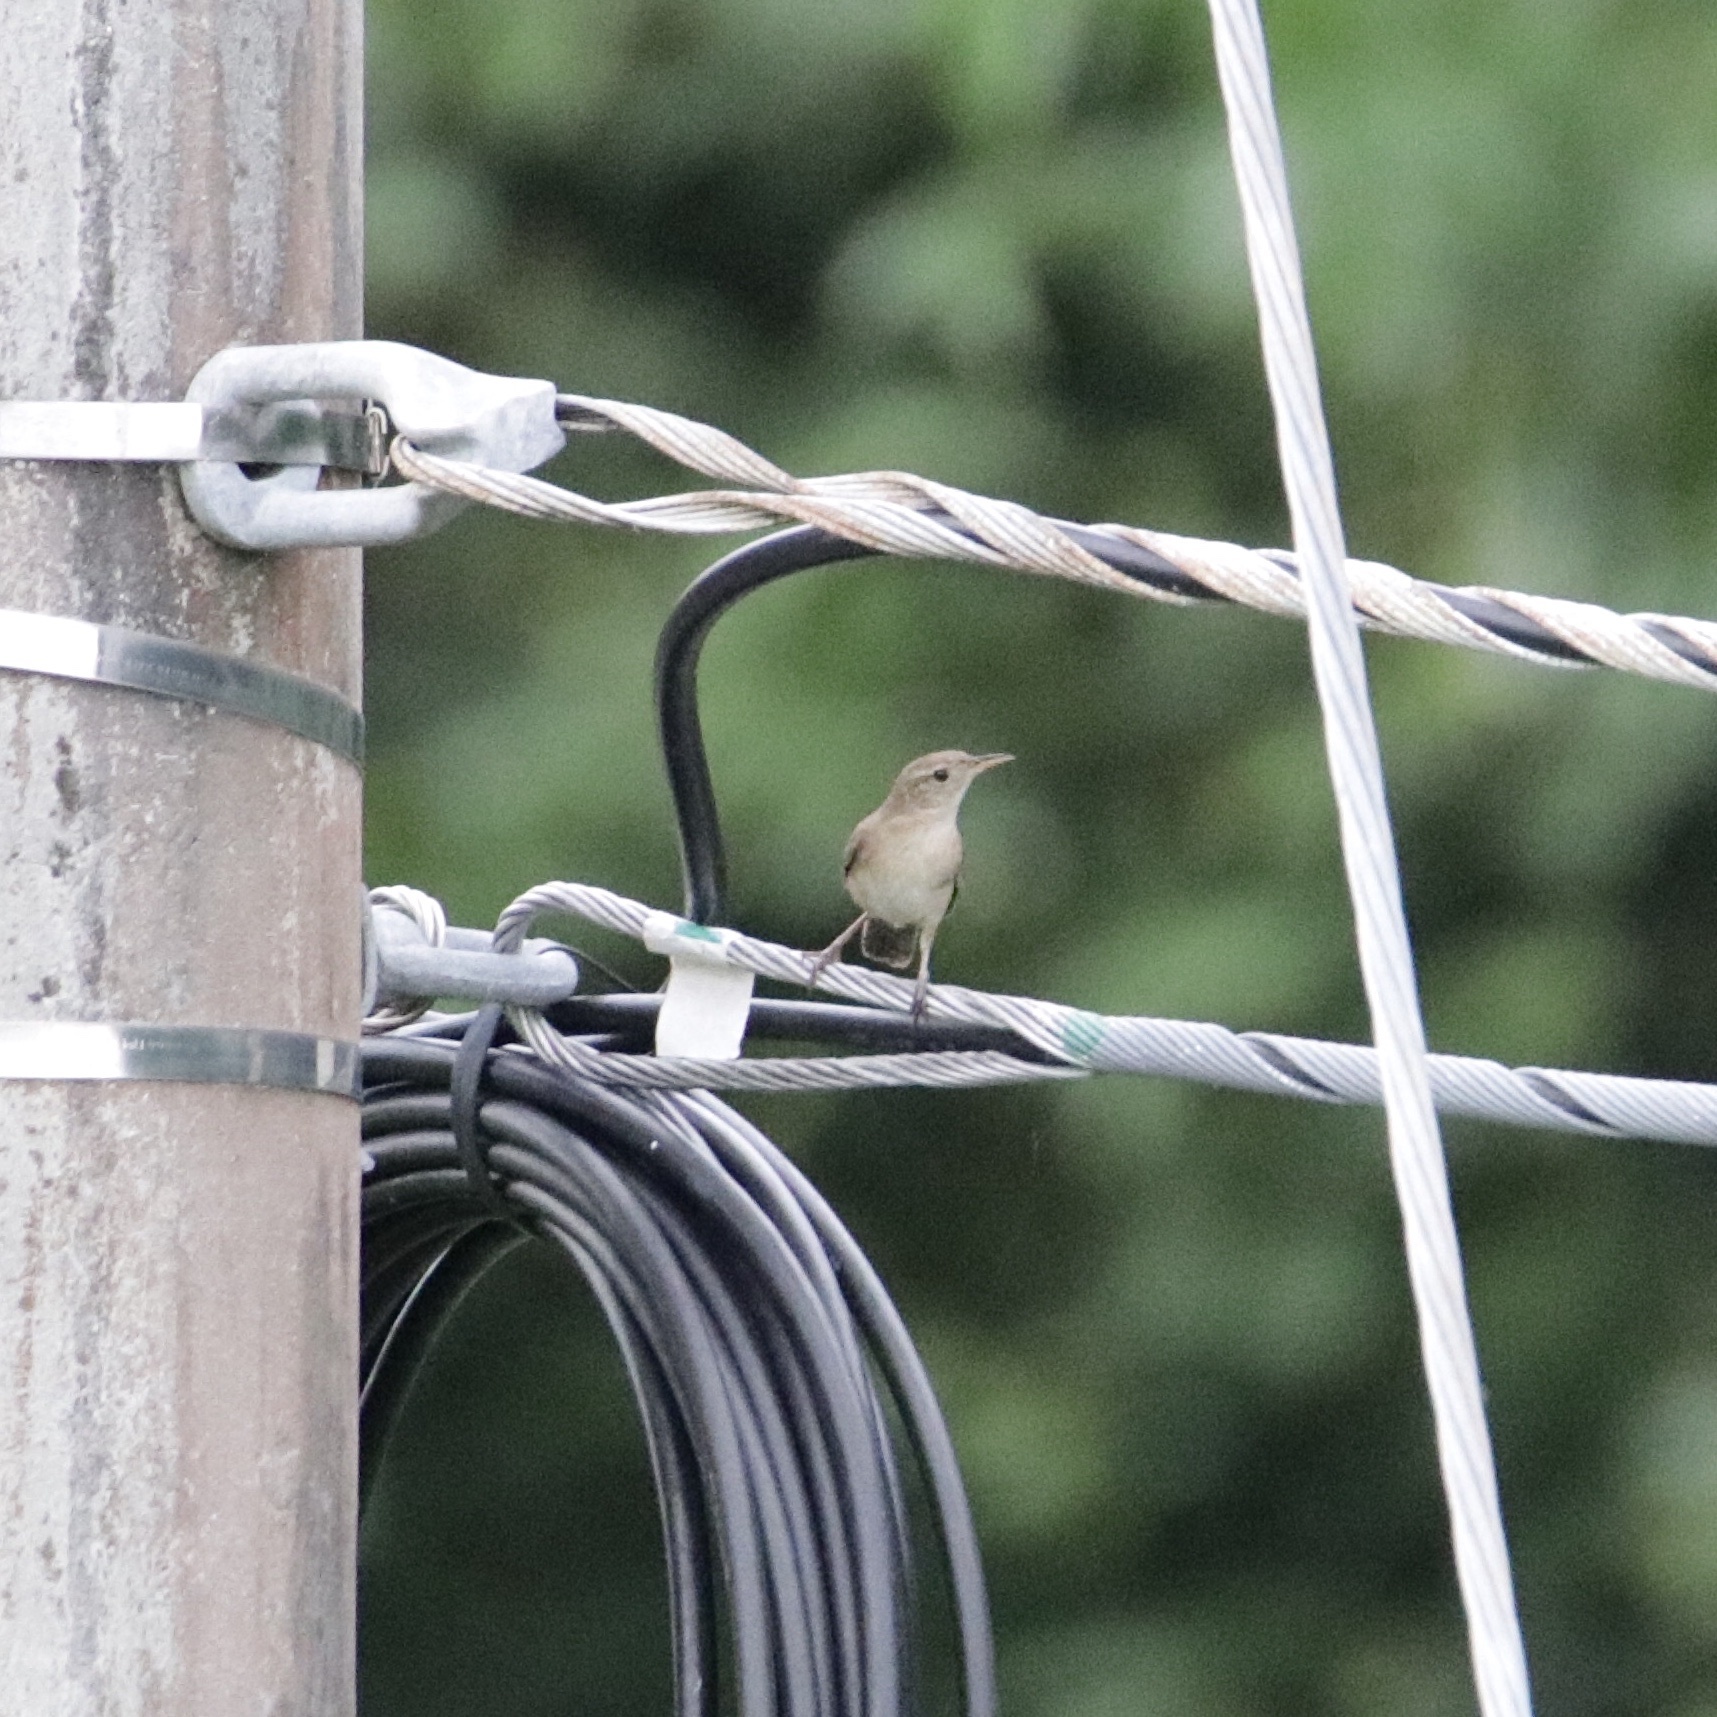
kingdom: Animalia
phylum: Chordata
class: Aves
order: Passeriformes
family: Troglodytidae
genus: Troglodytes
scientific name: Troglodytes aedon
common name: House wren
